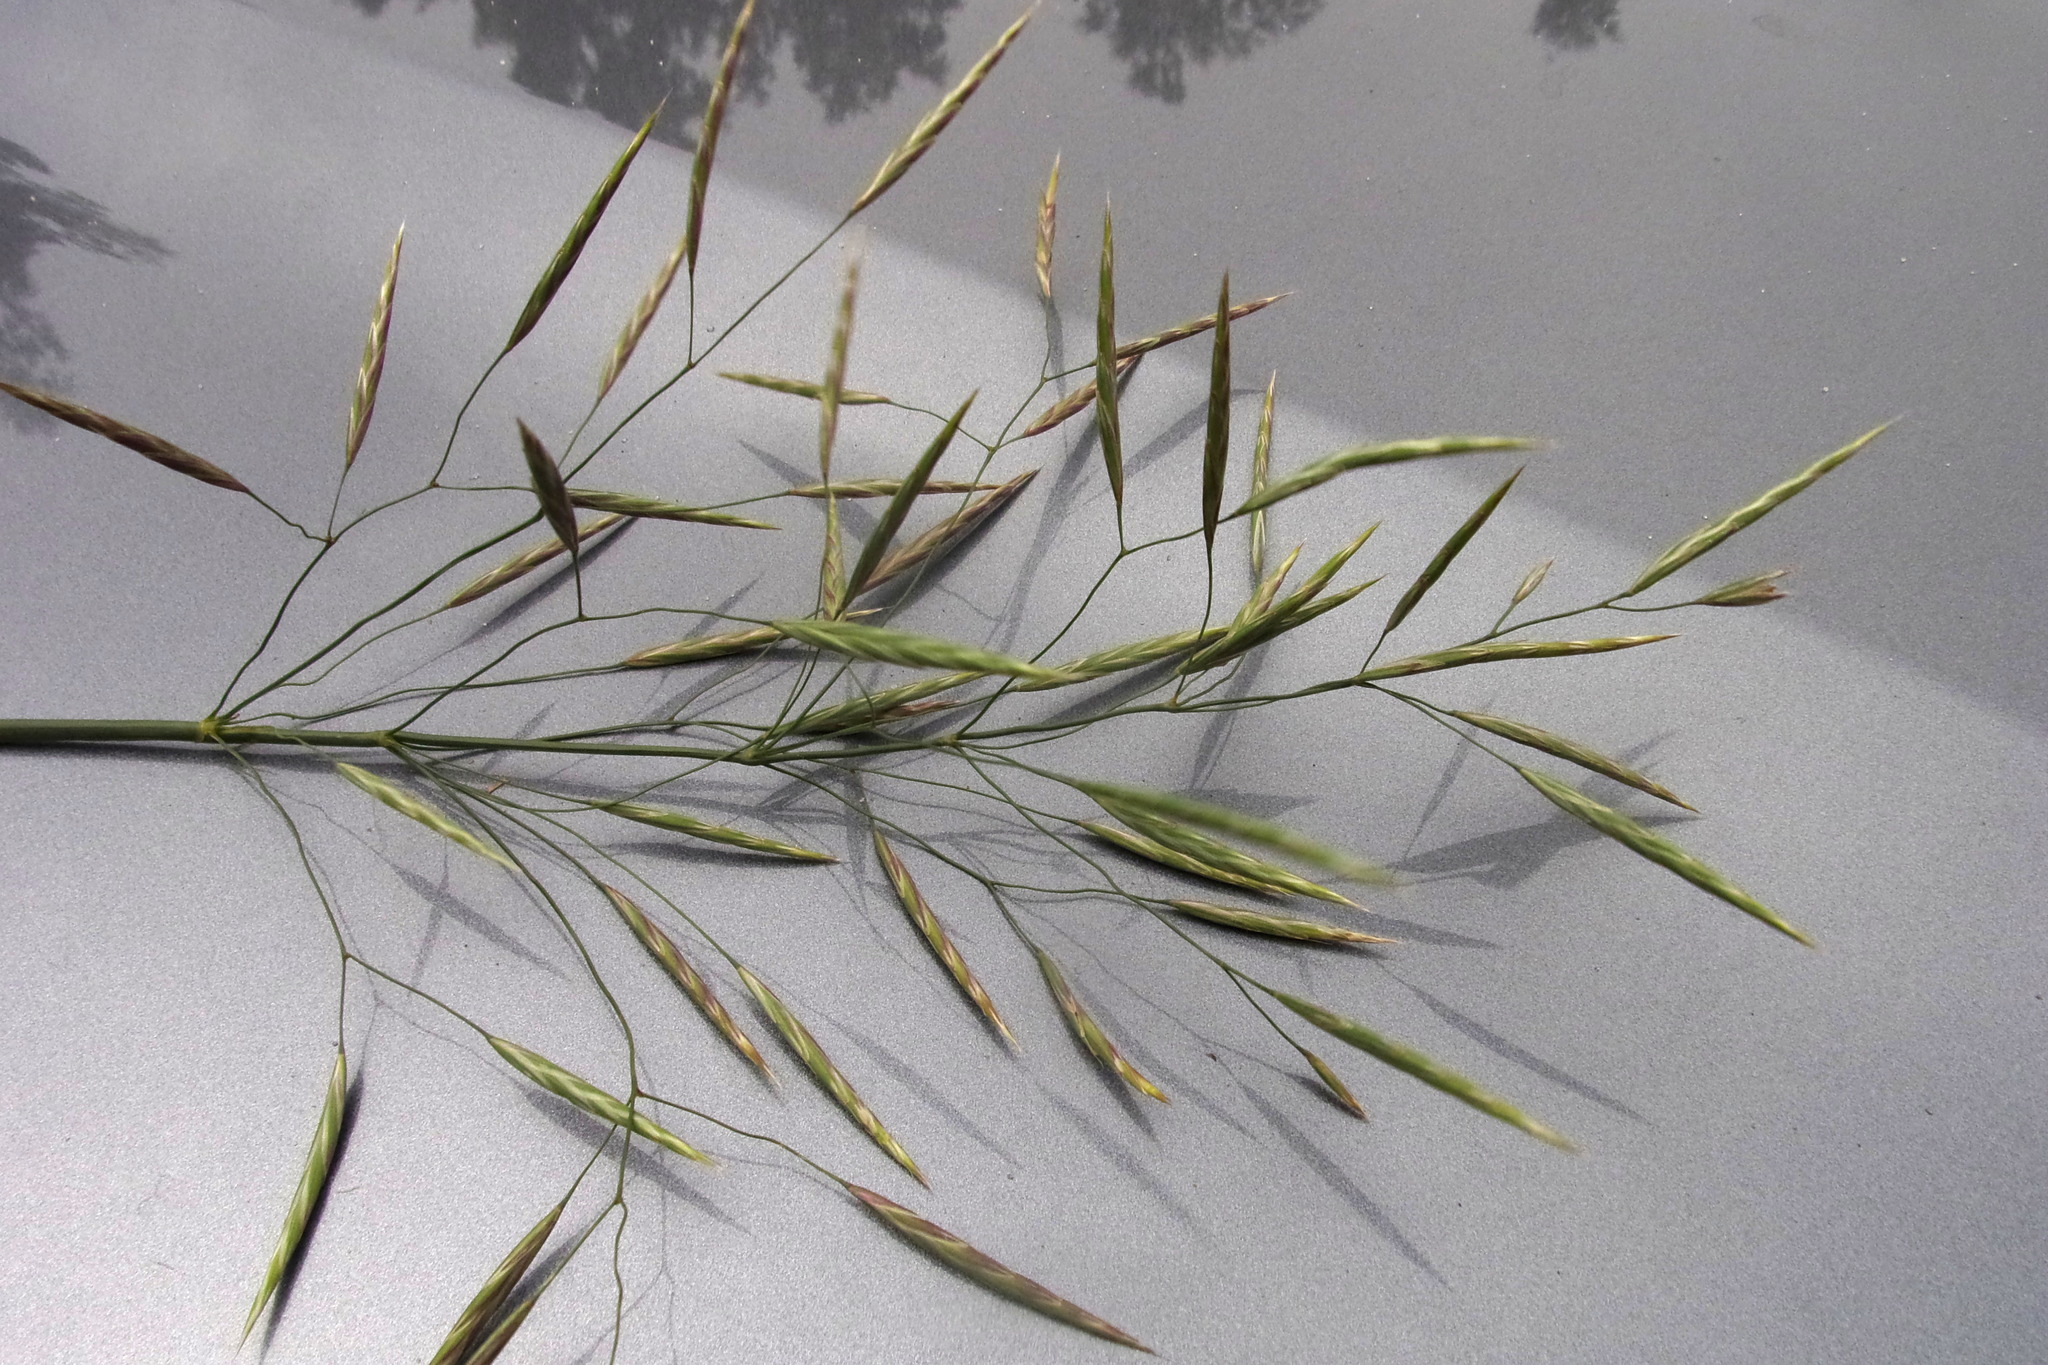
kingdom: Plantae
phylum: Tracheophyta
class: Liliopsida
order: Poales
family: Poaceae
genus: Bromus
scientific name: Bromus inermis
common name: Smooth brome
